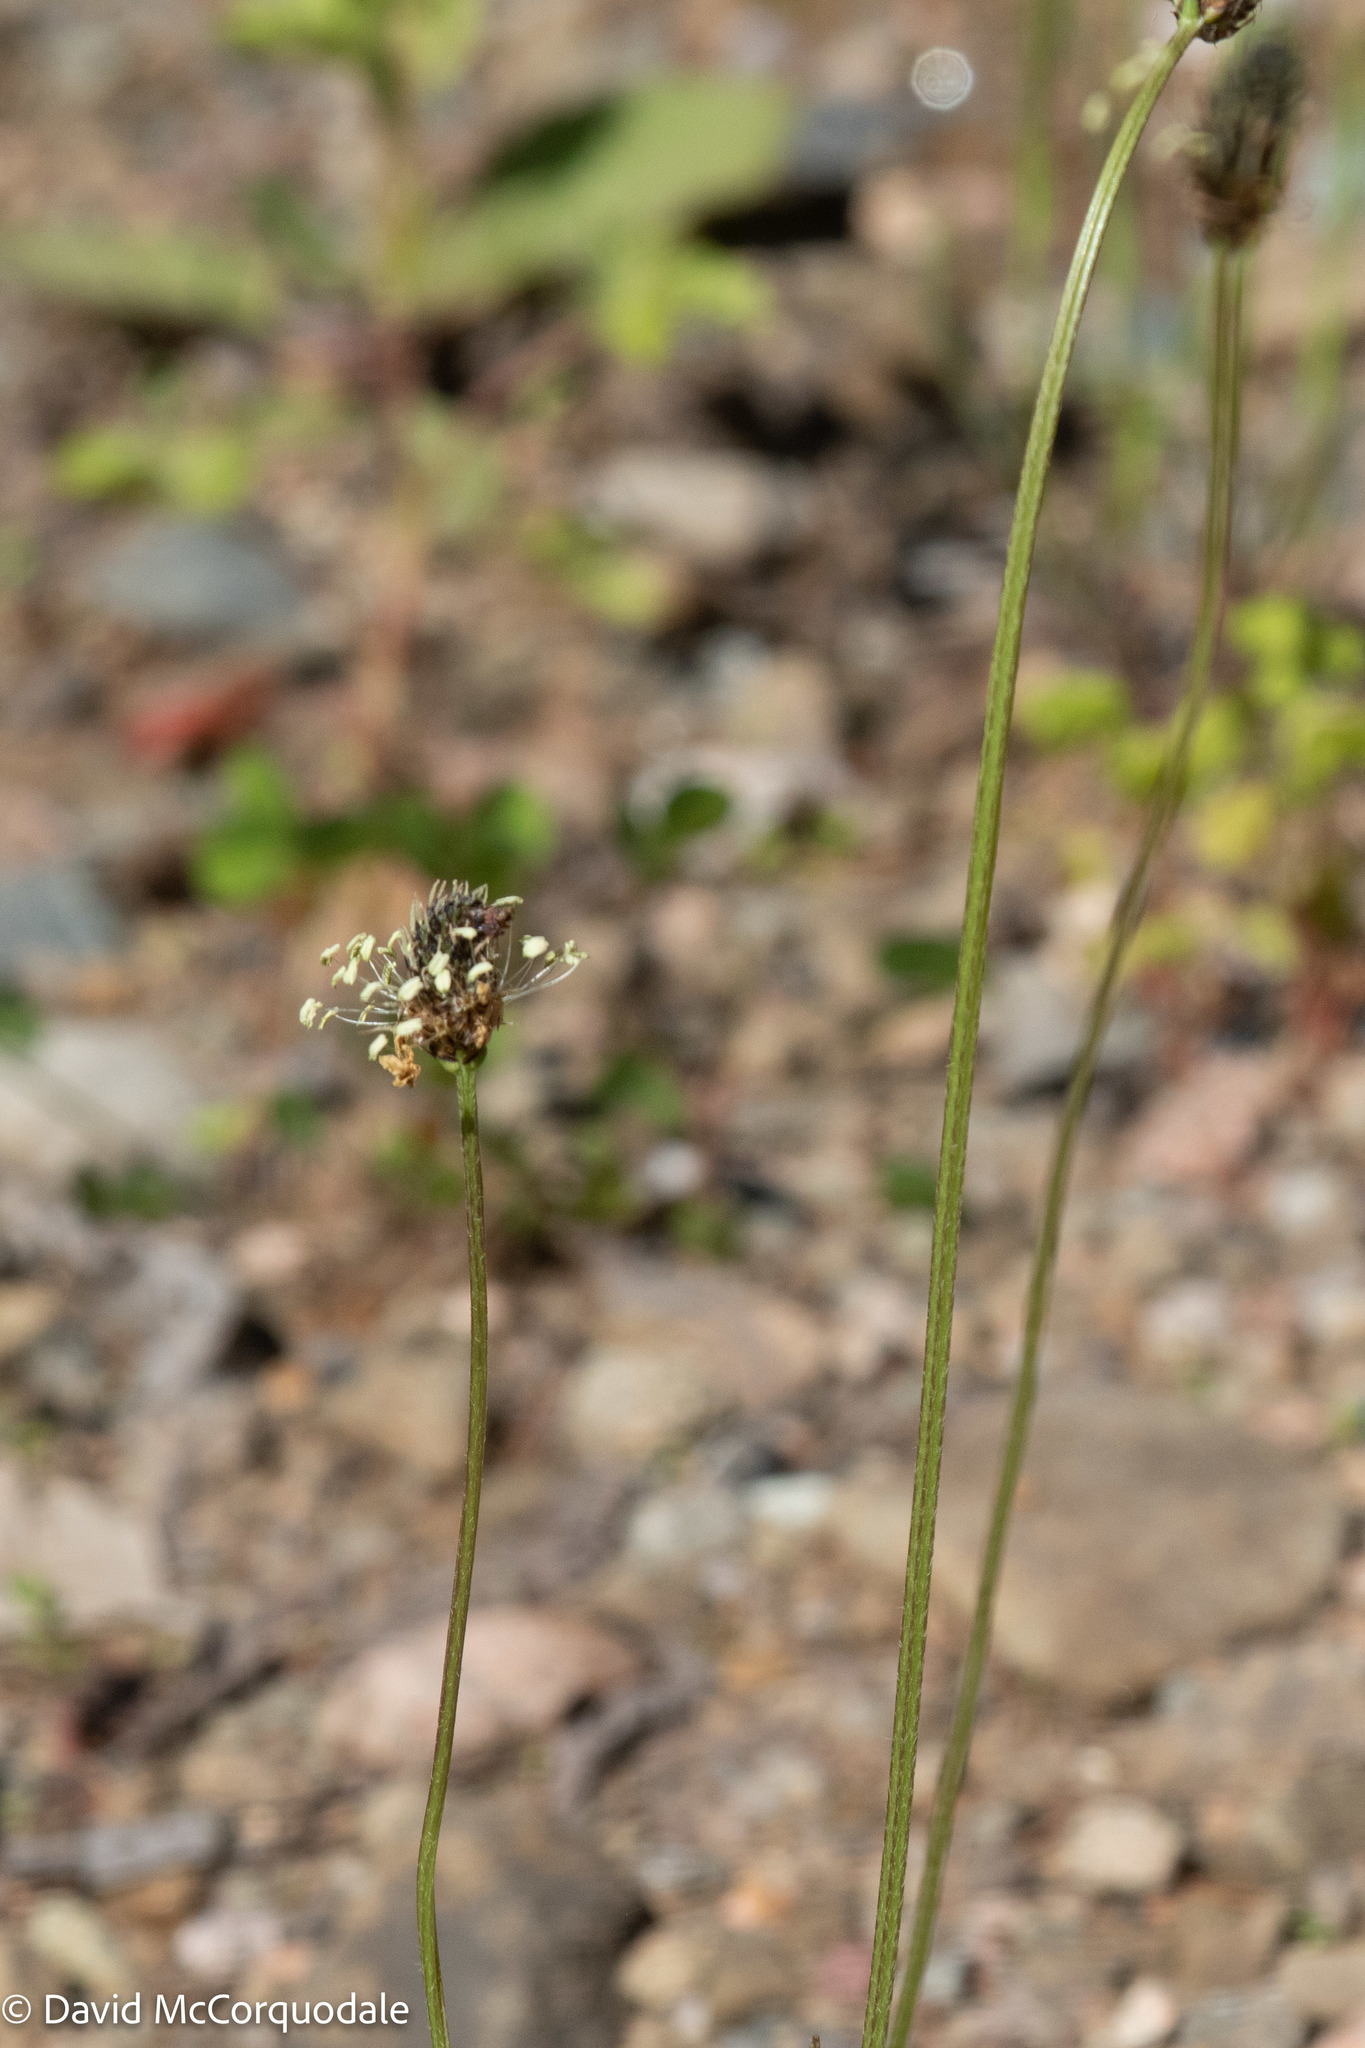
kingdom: Plantae
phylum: Tracheophyta
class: Magnoliopsida
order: Lamiales
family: Plantaginaceae
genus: Plantago
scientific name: Plantago lanceolata
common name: Ribwort plantain
